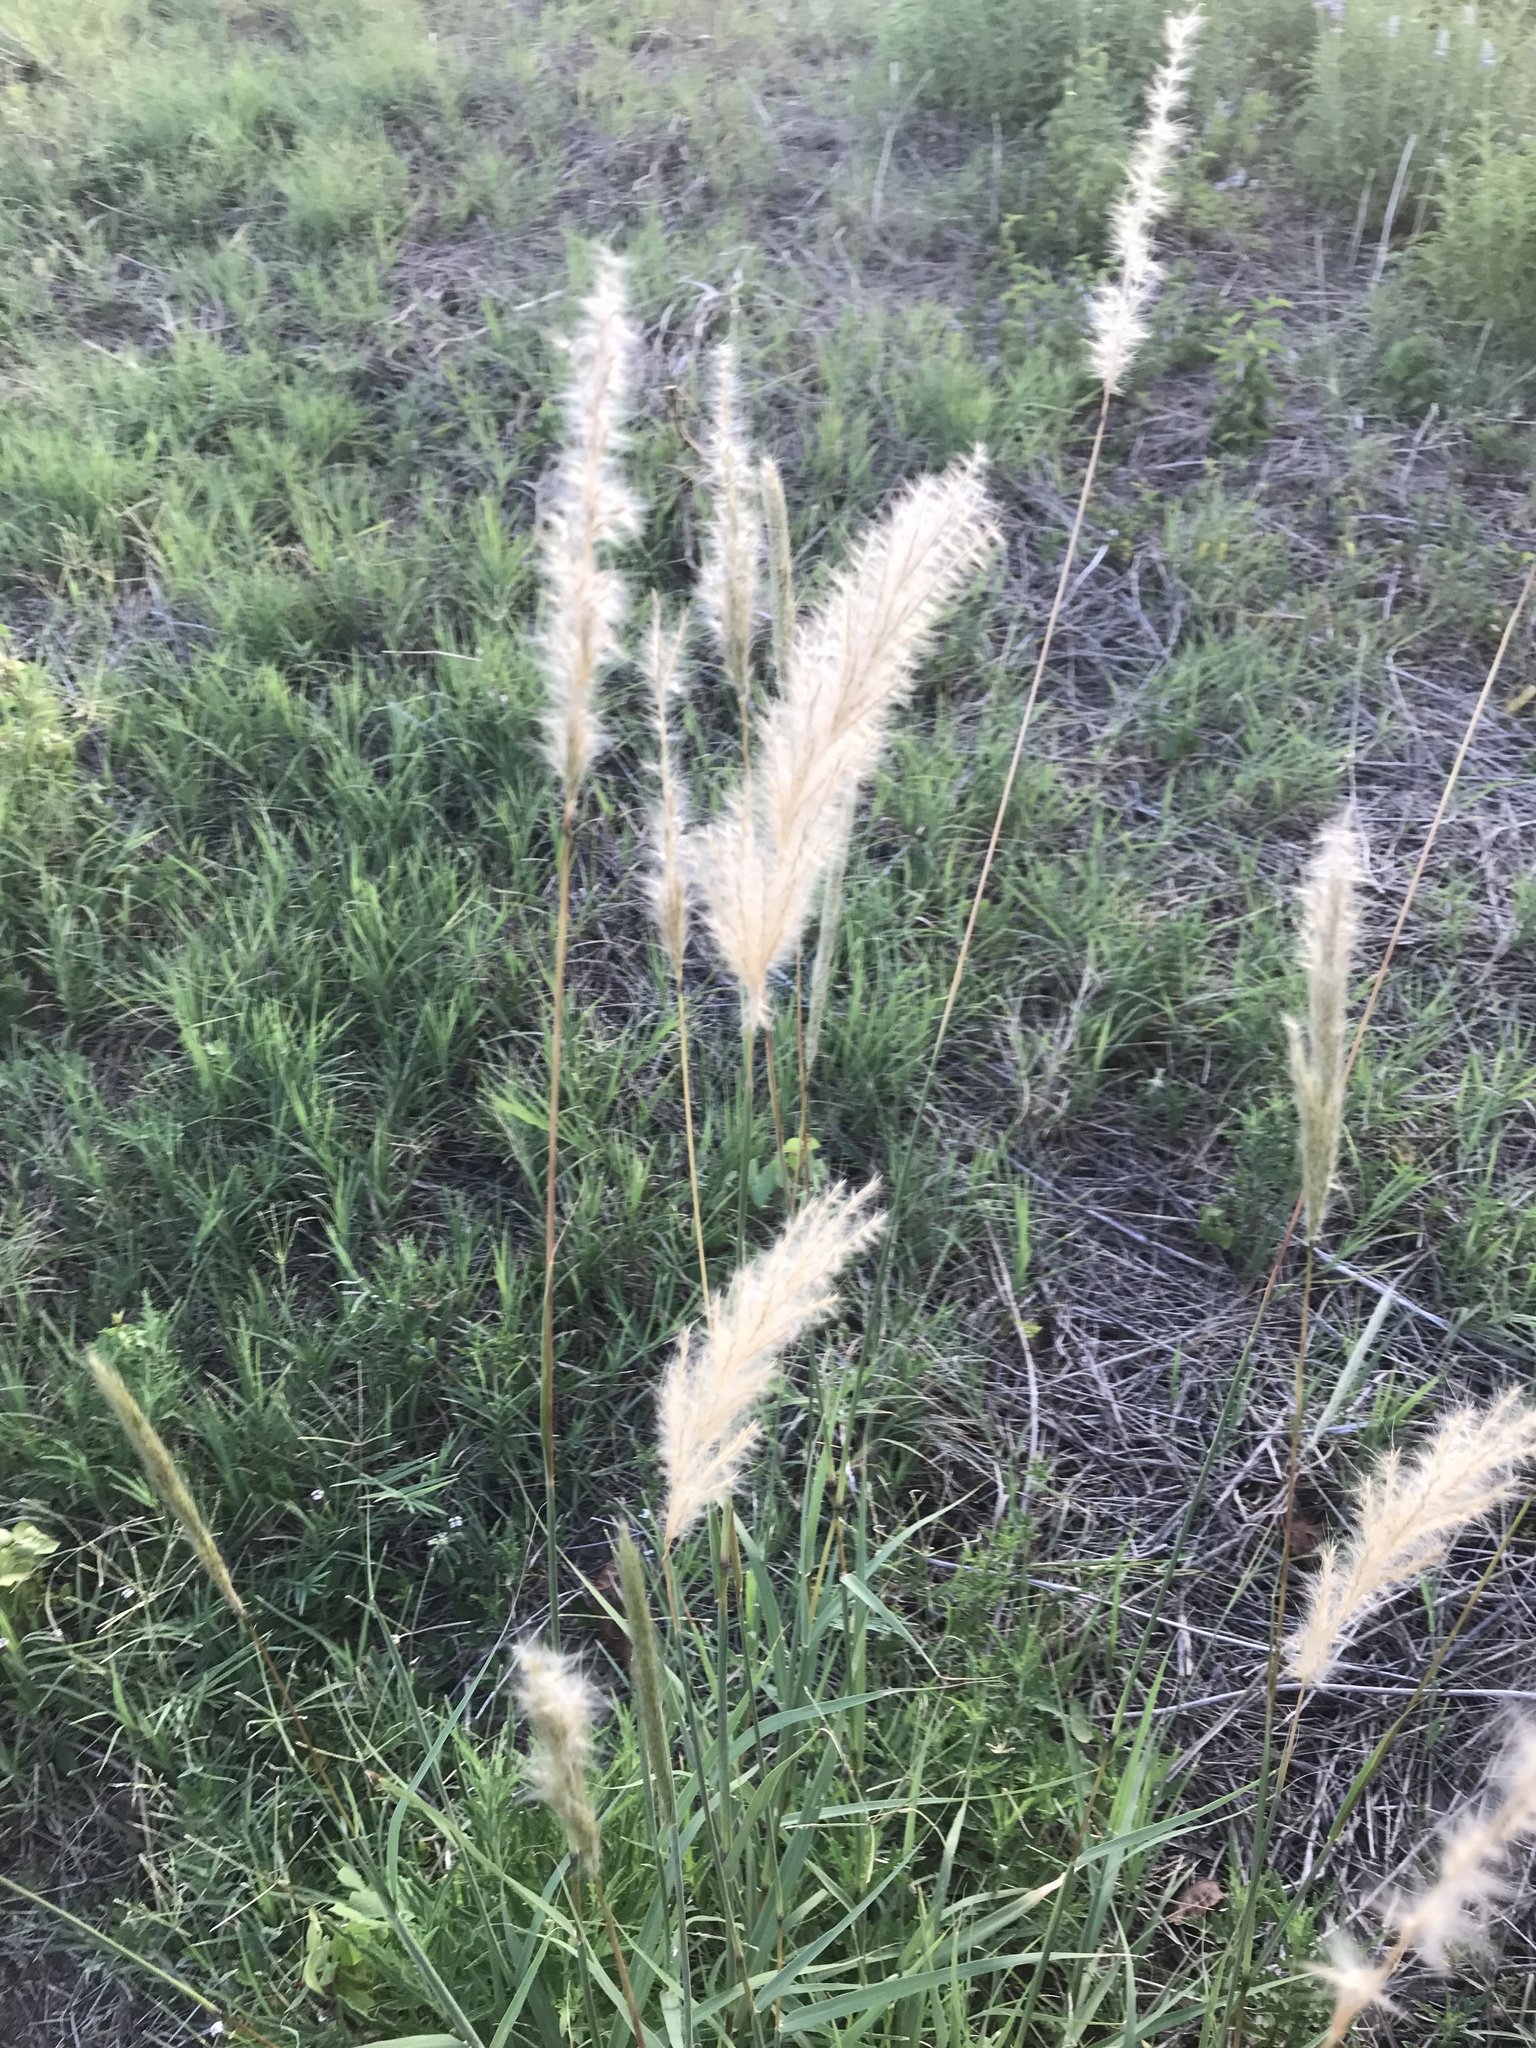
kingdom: Plantae
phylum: Tracheophyta
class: Liliopsida
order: Poales
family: Poaceae
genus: Bothriochloa
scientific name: Bothriochloa torreyana
